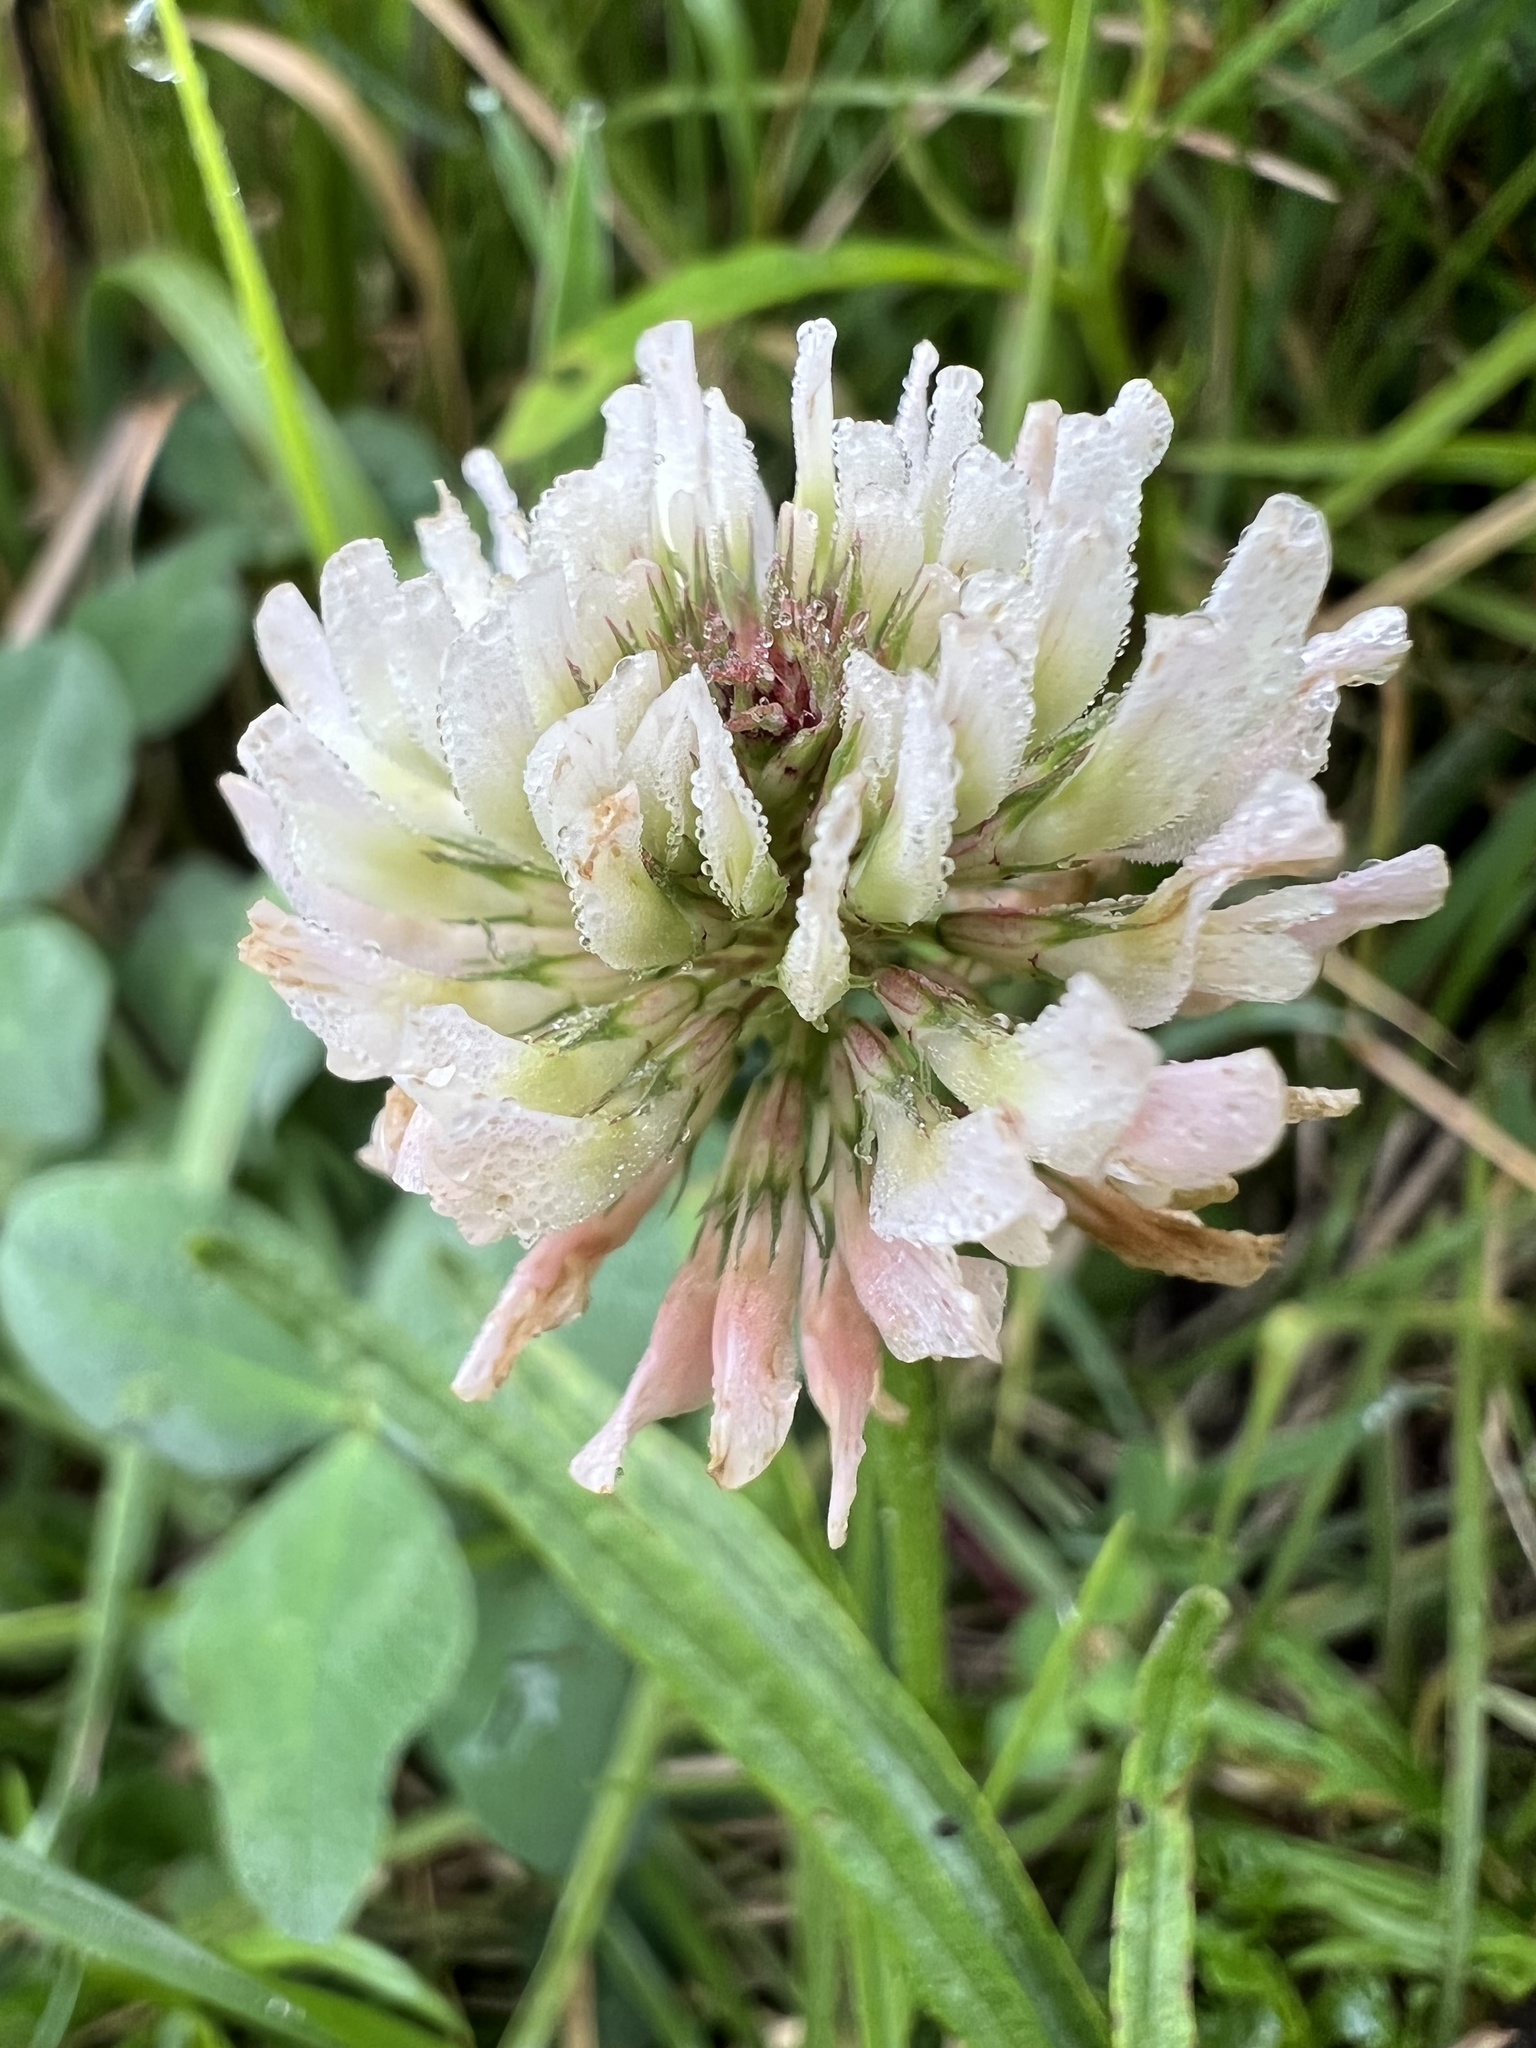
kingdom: Plantae
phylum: Tracheophyta
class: Magnoliopsida
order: Fabales
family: Fabaceae
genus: Trifolium
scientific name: Trifolium repens
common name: White clover
